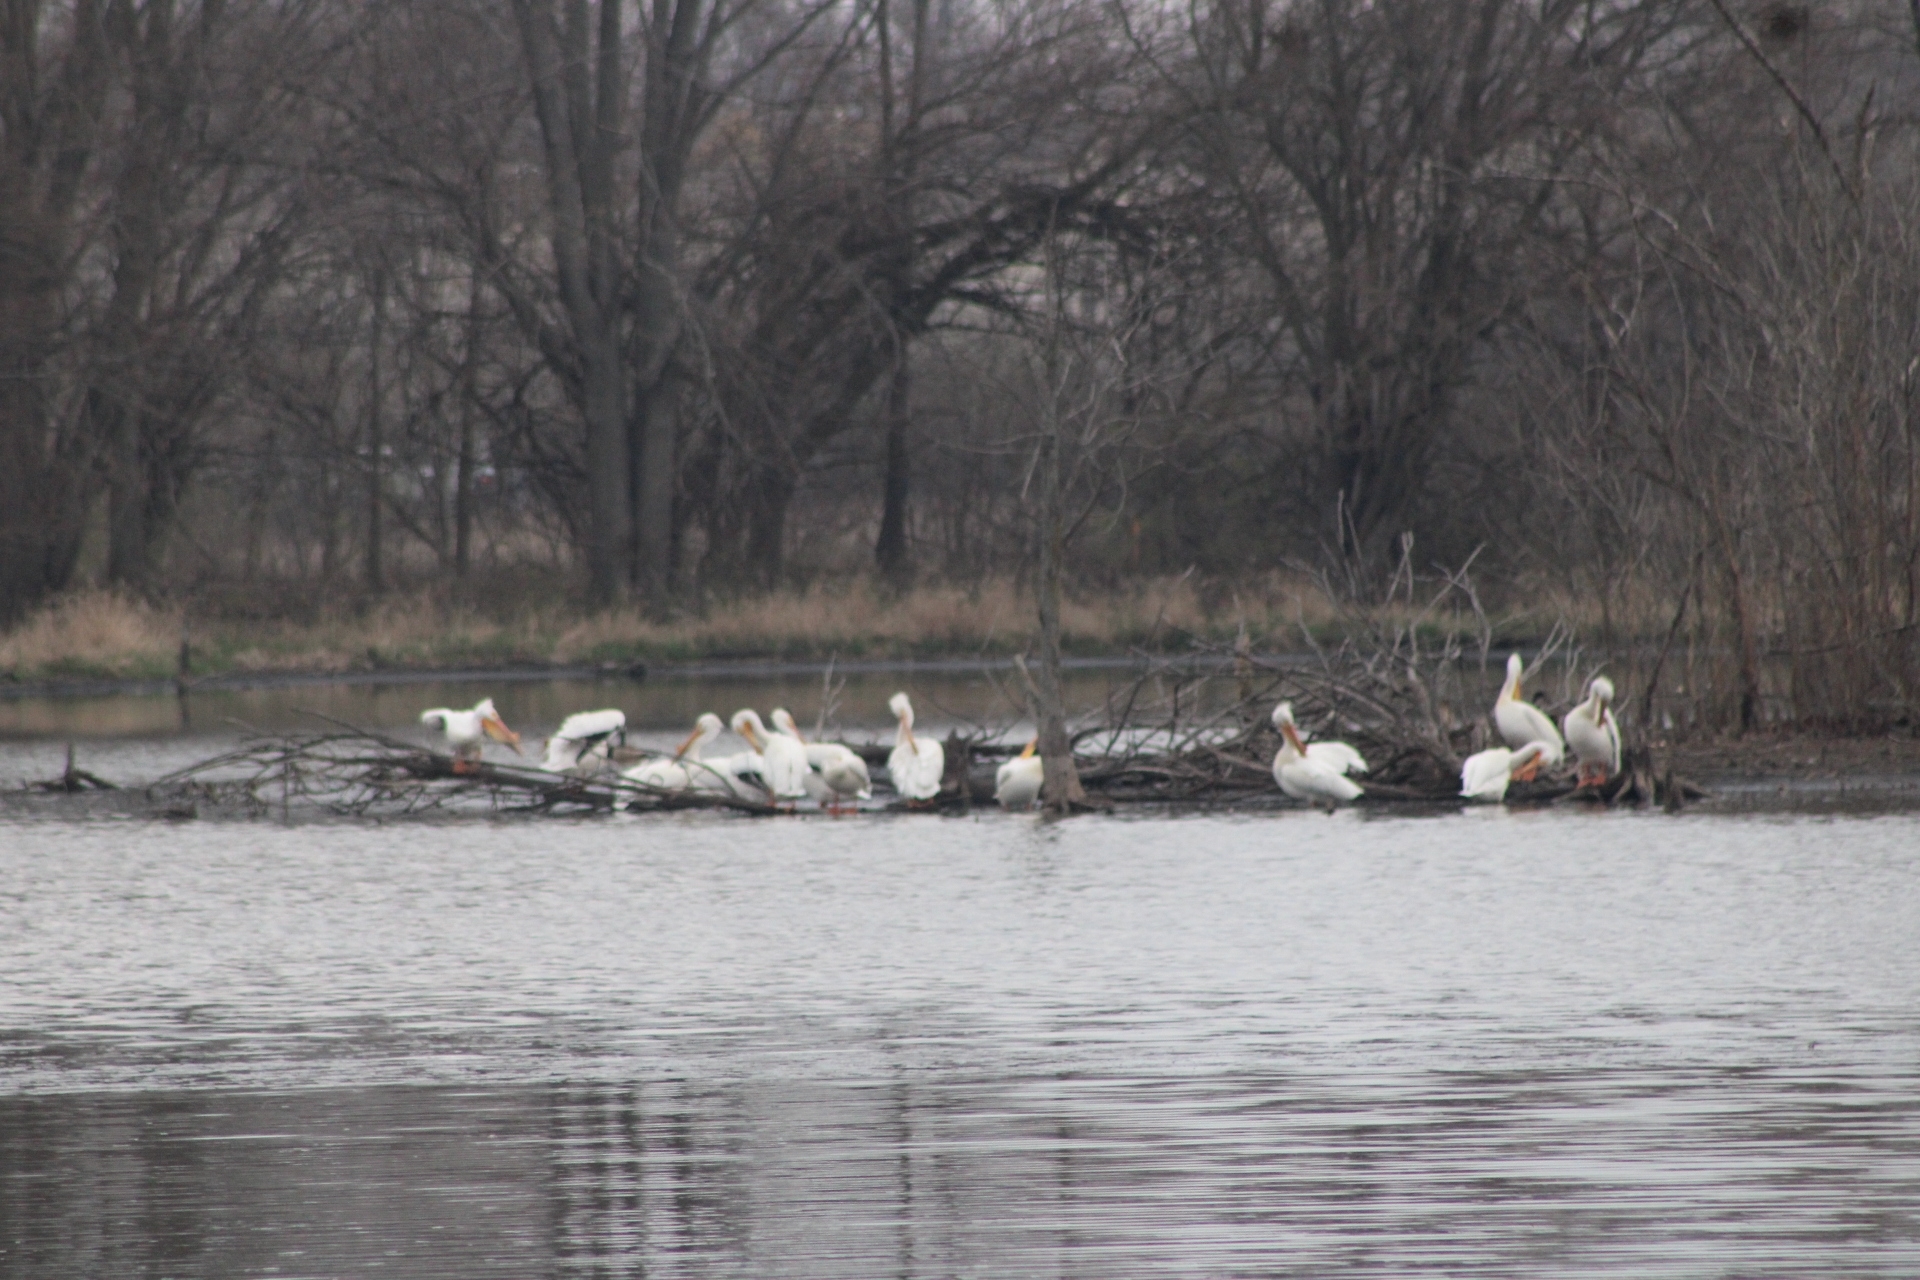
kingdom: Animalia
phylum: Chordata
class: Aves
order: Pelecaniformes
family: Pelecanidae
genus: Pelecanus
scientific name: Pelecanus erythrorhynchos
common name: American white pelican
